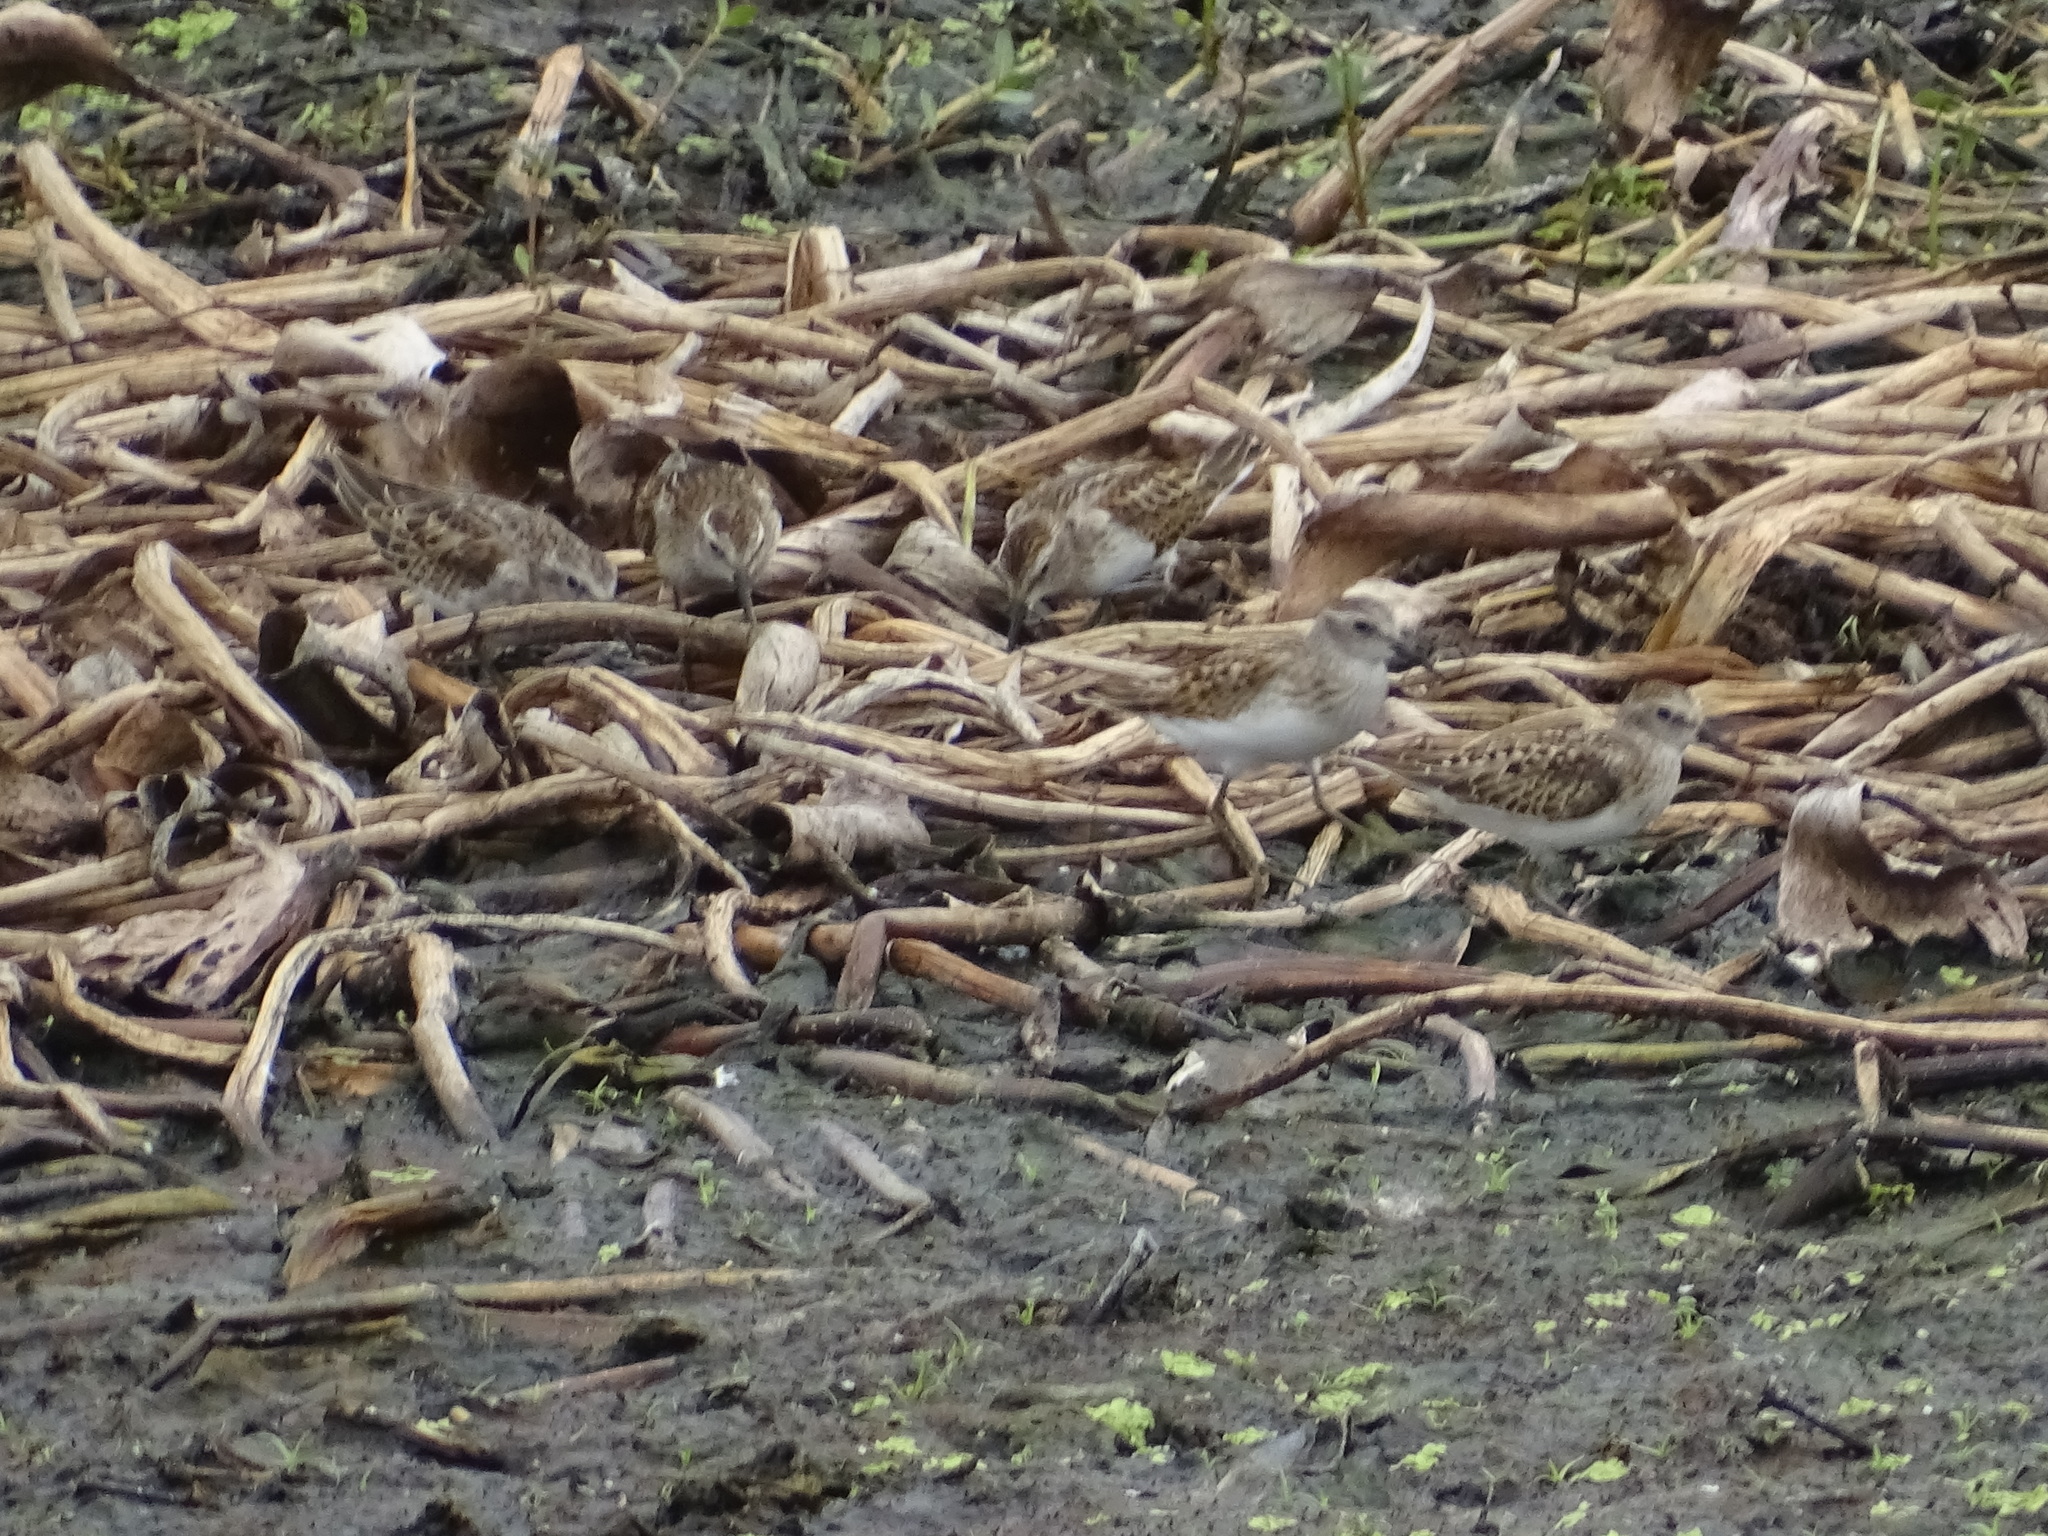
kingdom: Animalia
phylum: Chordata
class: Aves
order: Charadriiformes
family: Scolopacidae
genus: Calidris
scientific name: Calidris minutilla
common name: Least sandpiper
